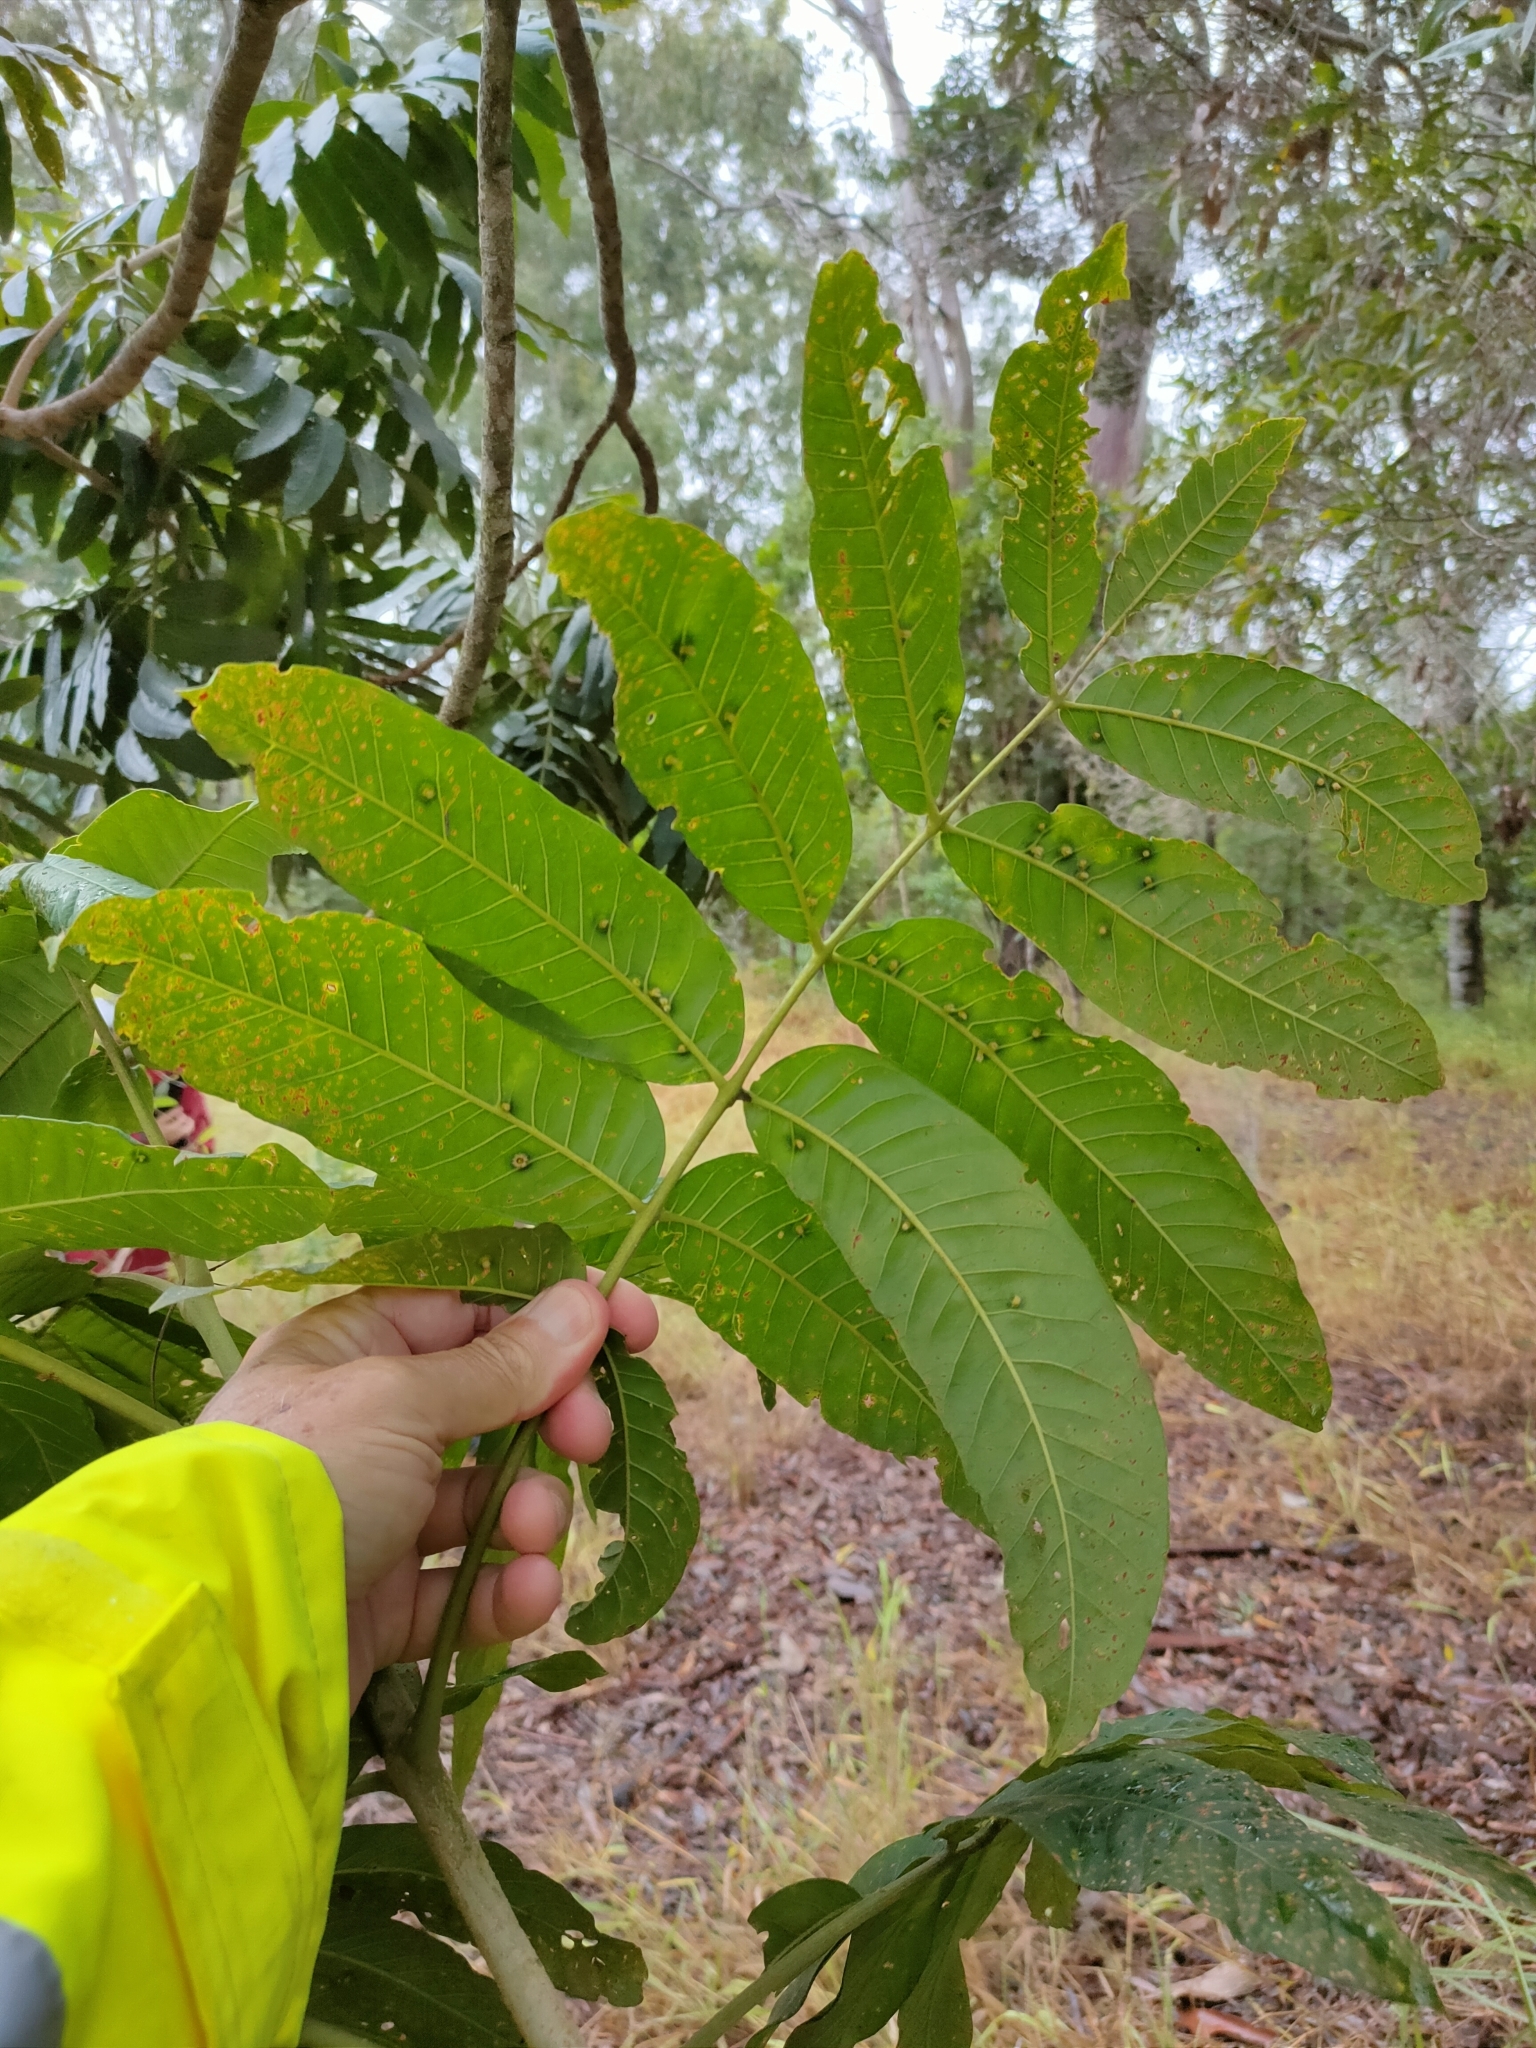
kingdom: Plantae
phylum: Tracheophyta
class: Magnoliopsida
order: Sapindales
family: Rutaceae
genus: Flindersia
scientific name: Flindersia schottiana
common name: Silver ash
